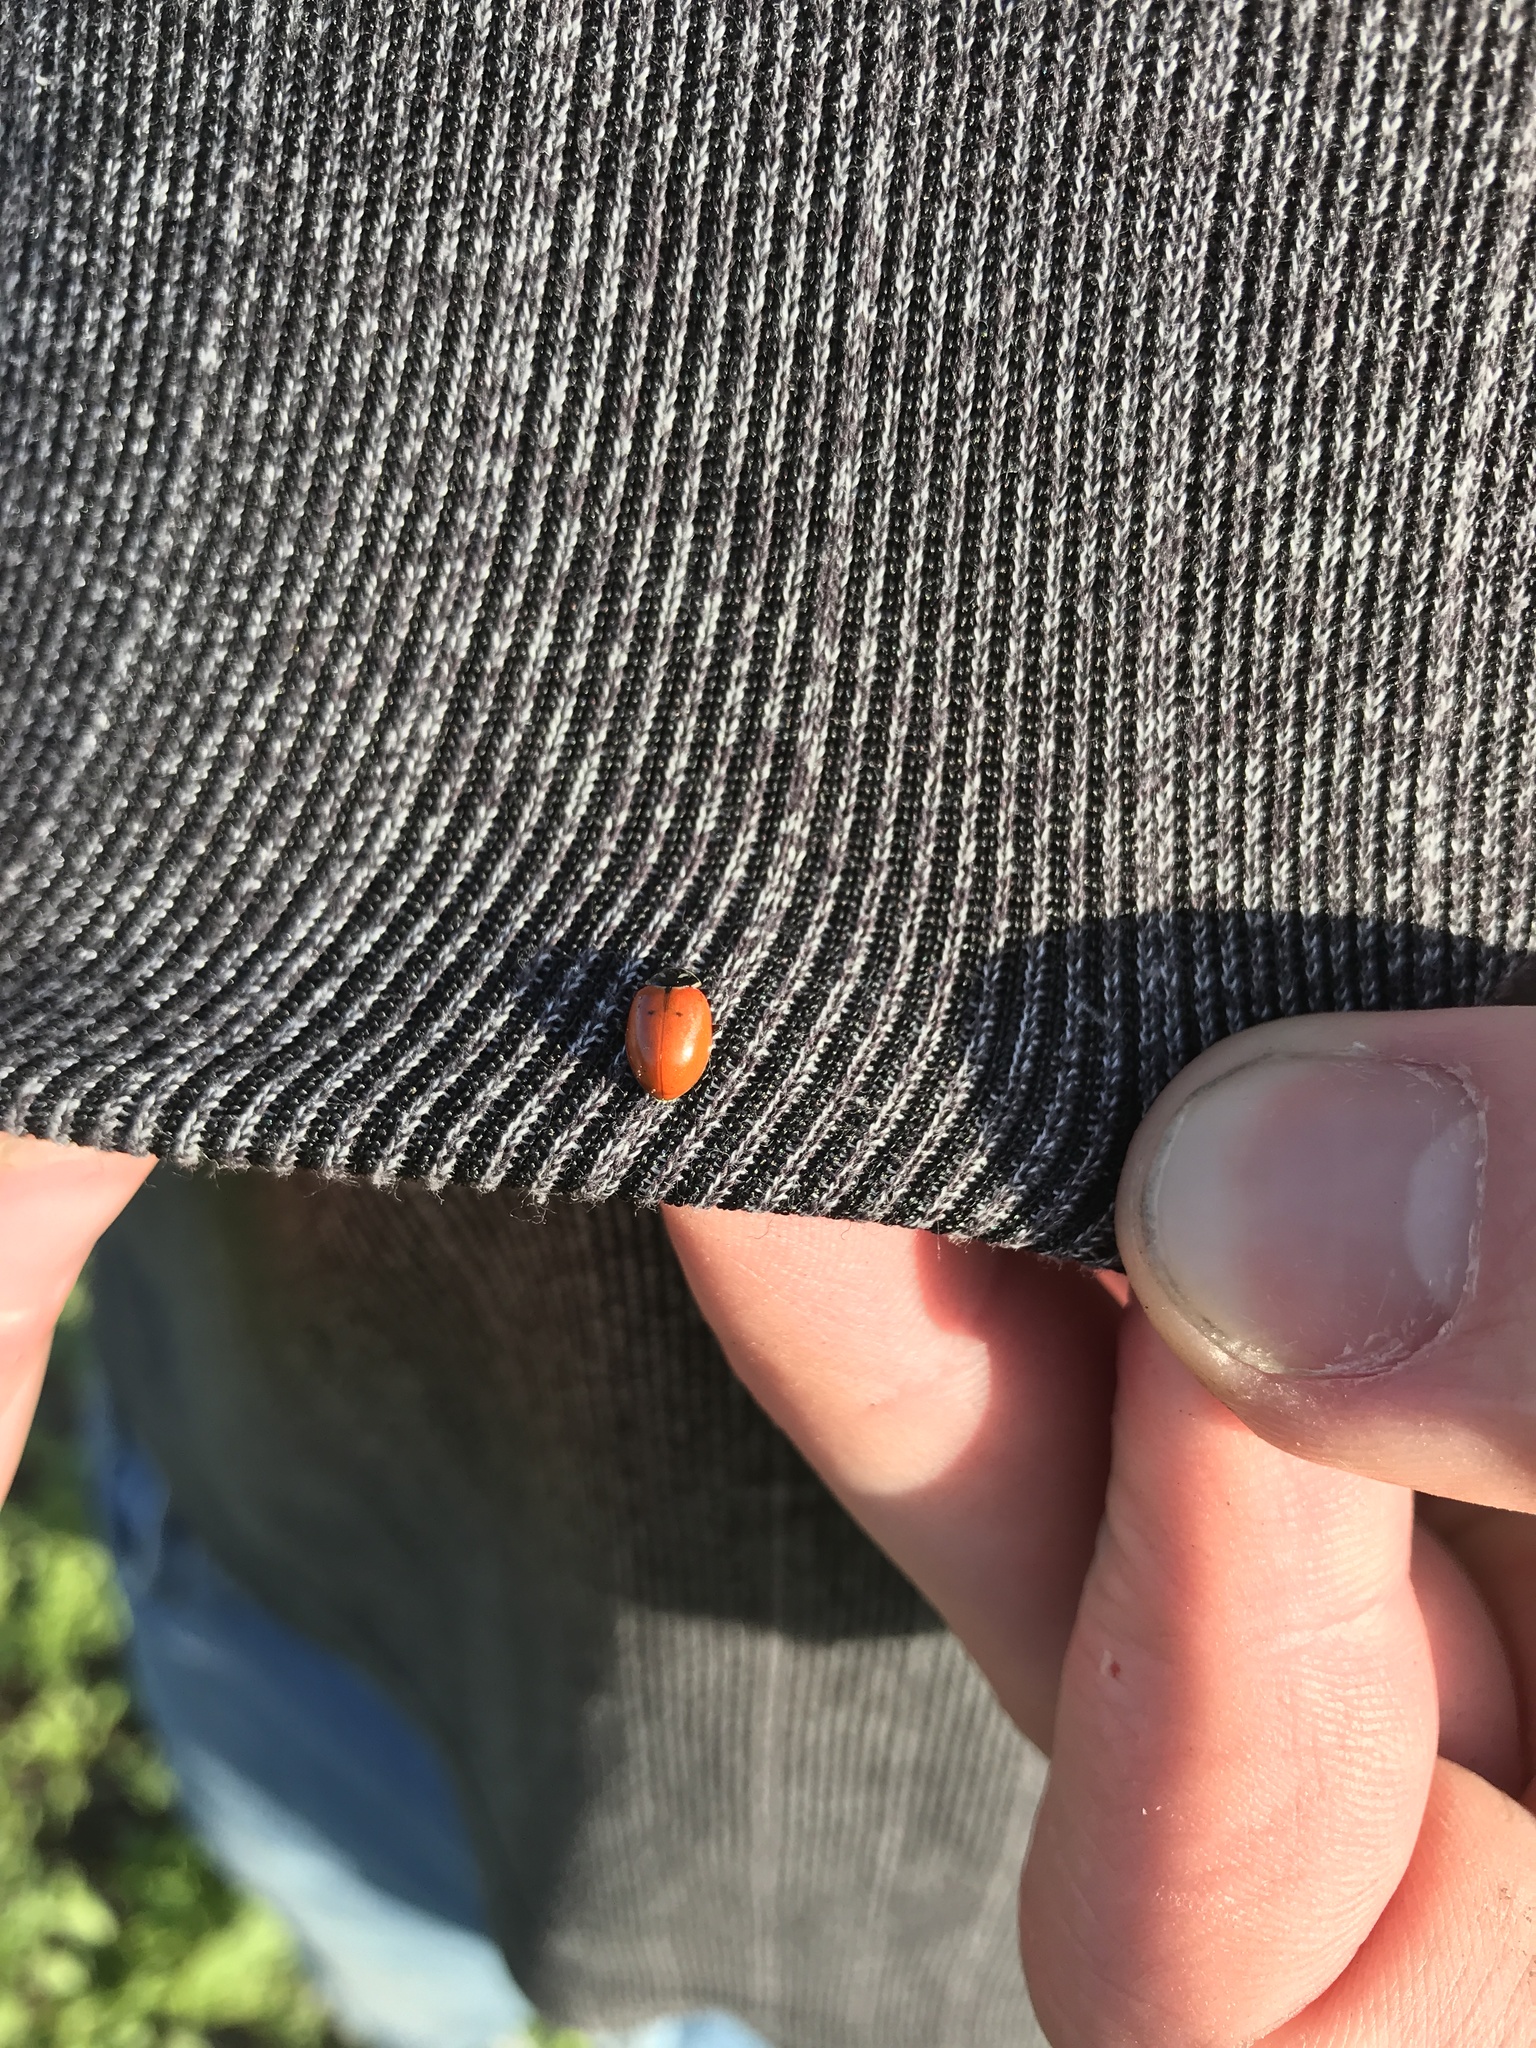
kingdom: Animalia
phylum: Arthropoda
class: Insecta
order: Coleoptera
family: Coccinellidae
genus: Hippodamia
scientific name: Hippodamia convergens
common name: Convergent lady beetle
